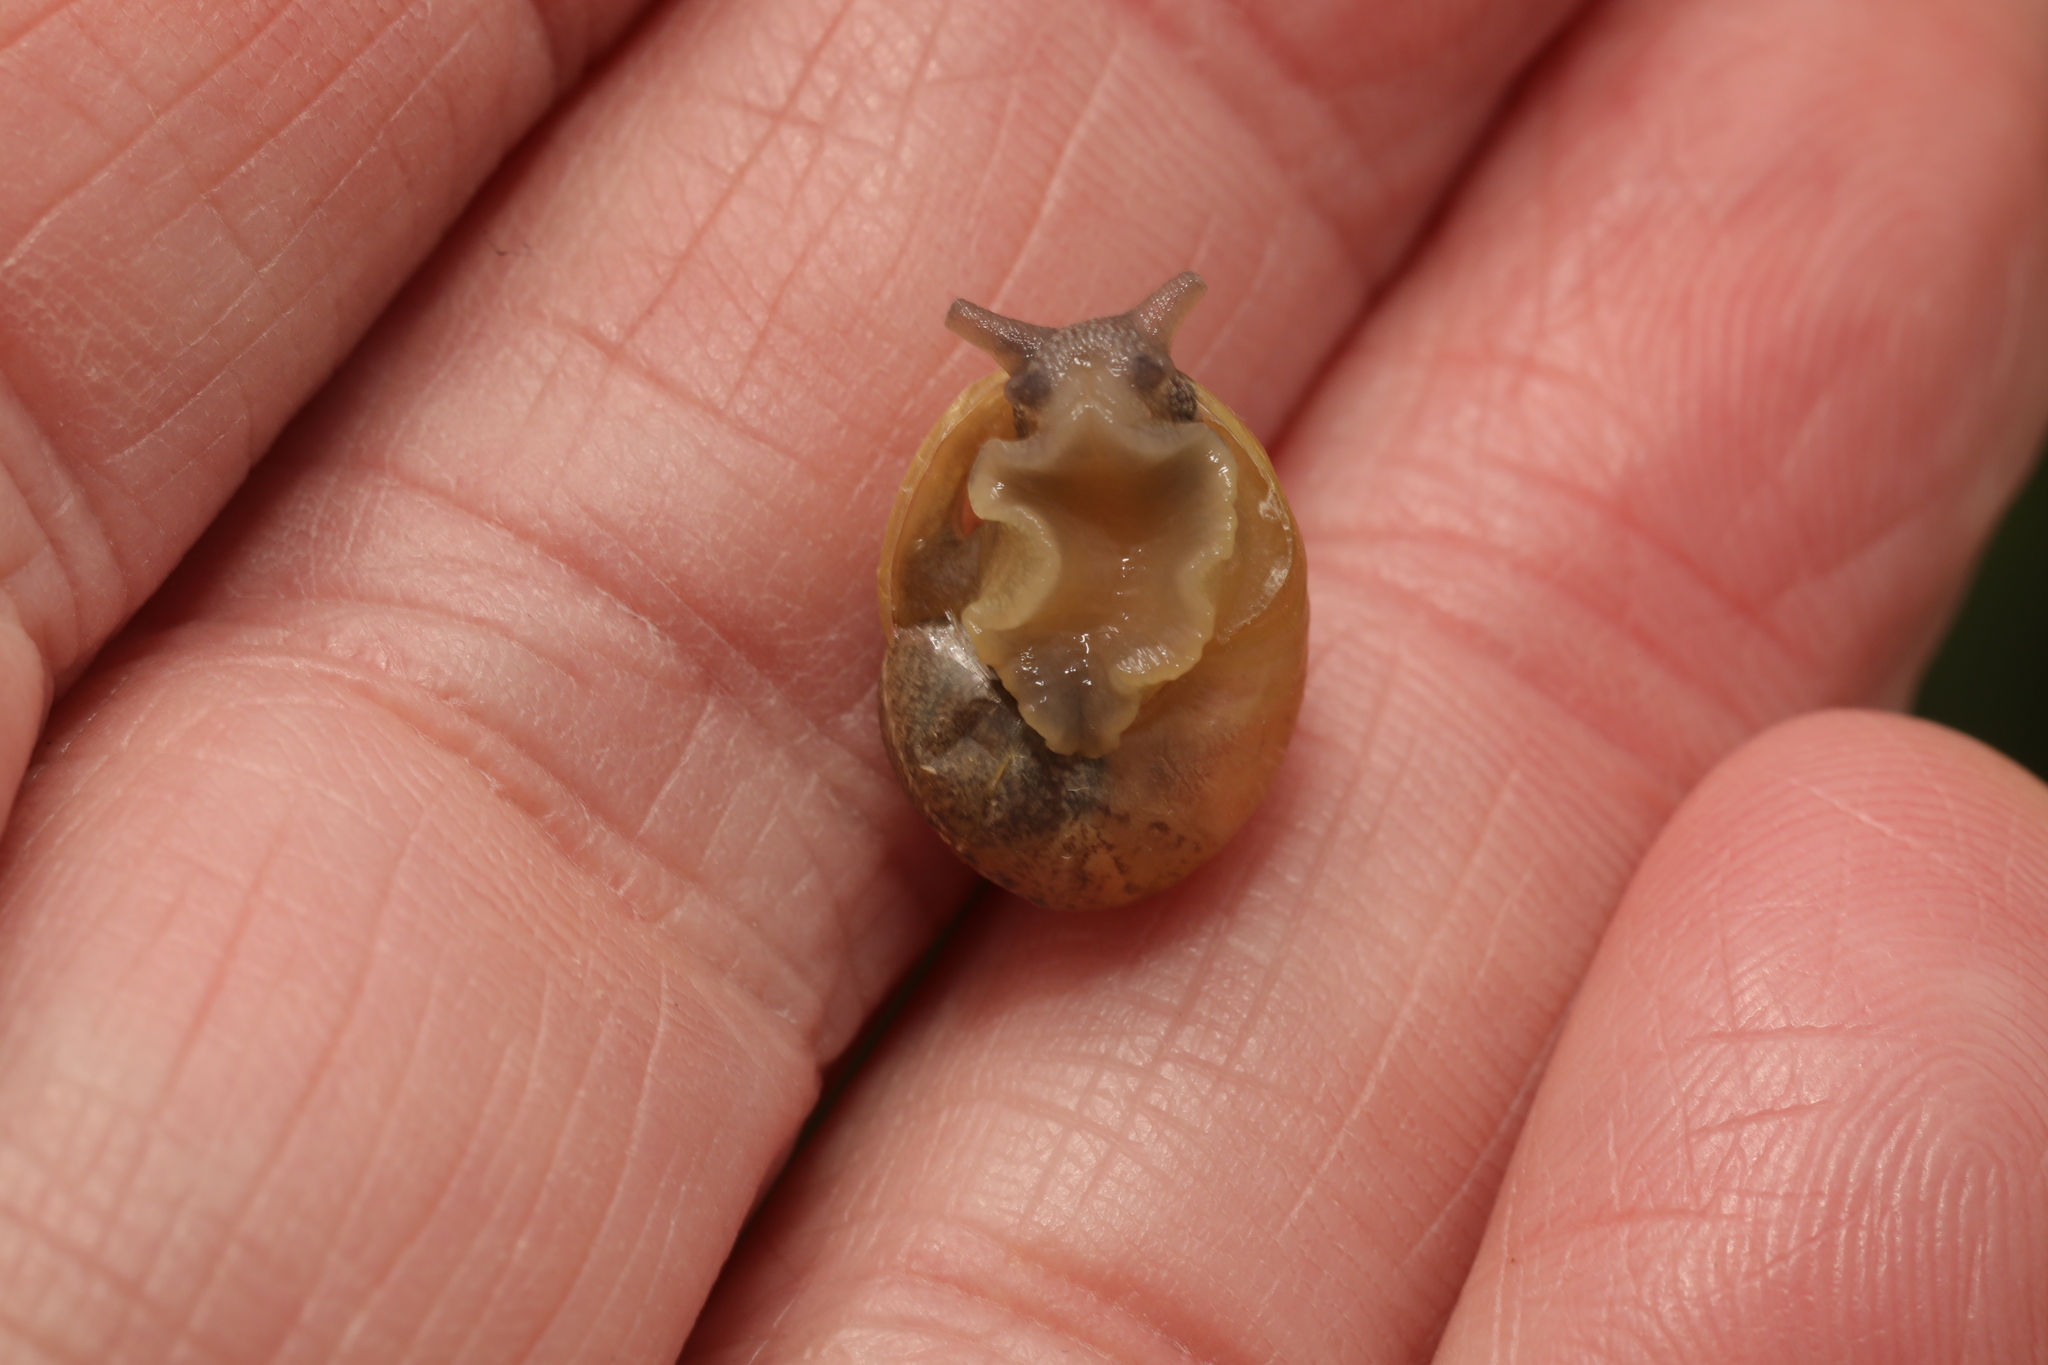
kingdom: Animalia
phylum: Mollusca
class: Gastropoda
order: Stylommatophora
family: Helicidae
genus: Cornu
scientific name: Cornu aspersum
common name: Brown garden snail
